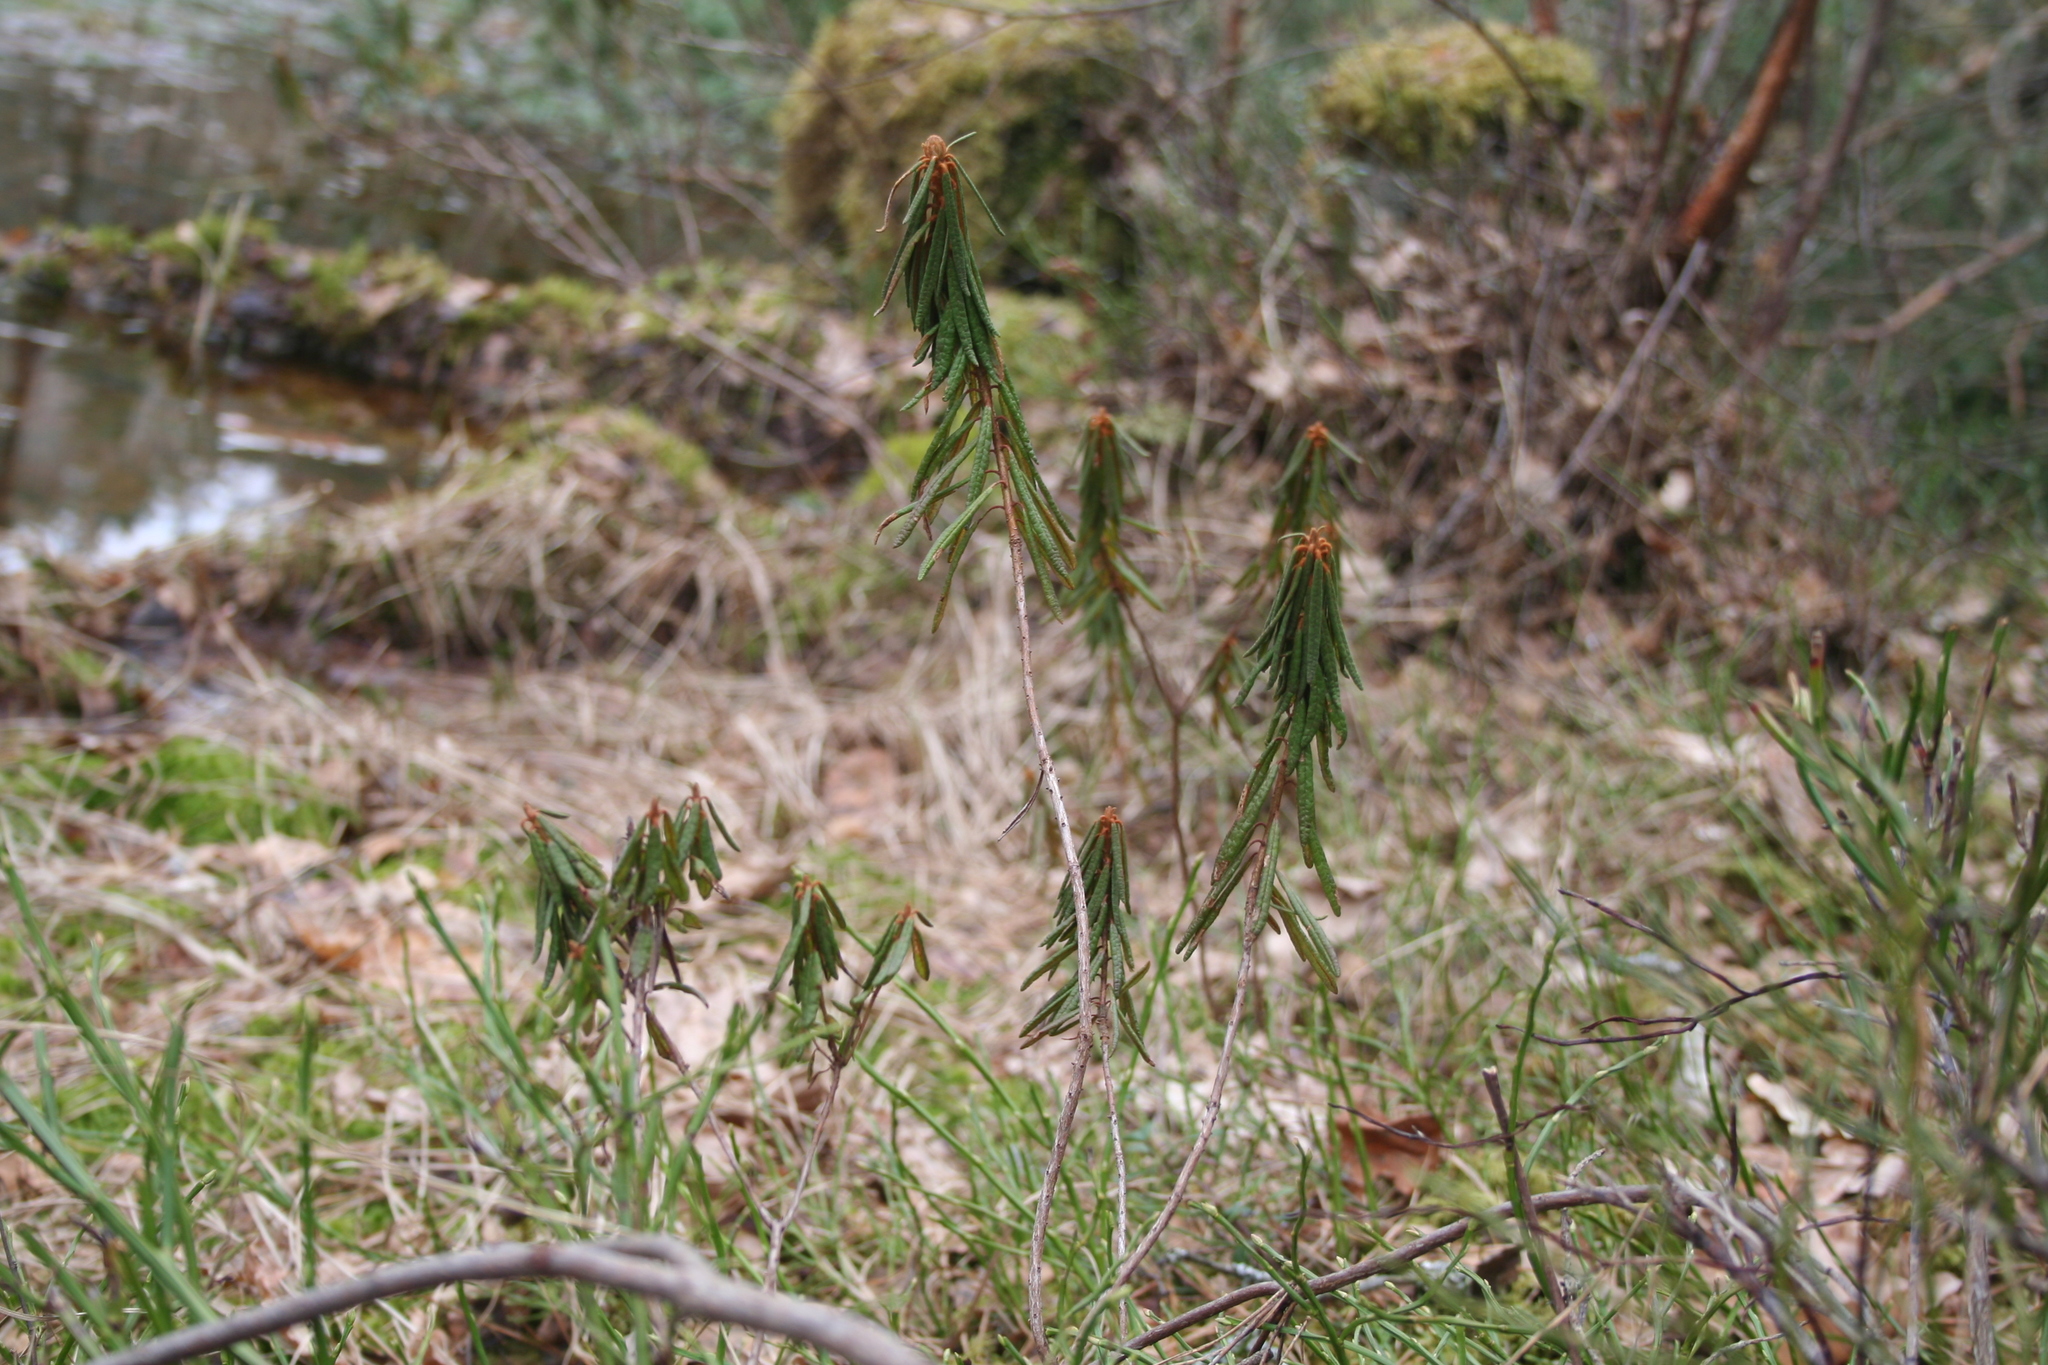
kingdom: Plantae
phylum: Tracheophyta
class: Magnoliopsida
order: Ericales
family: Ericaceae
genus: Rhododendron
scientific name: Rhododendron tomentosum
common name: Marsh labrador tea
